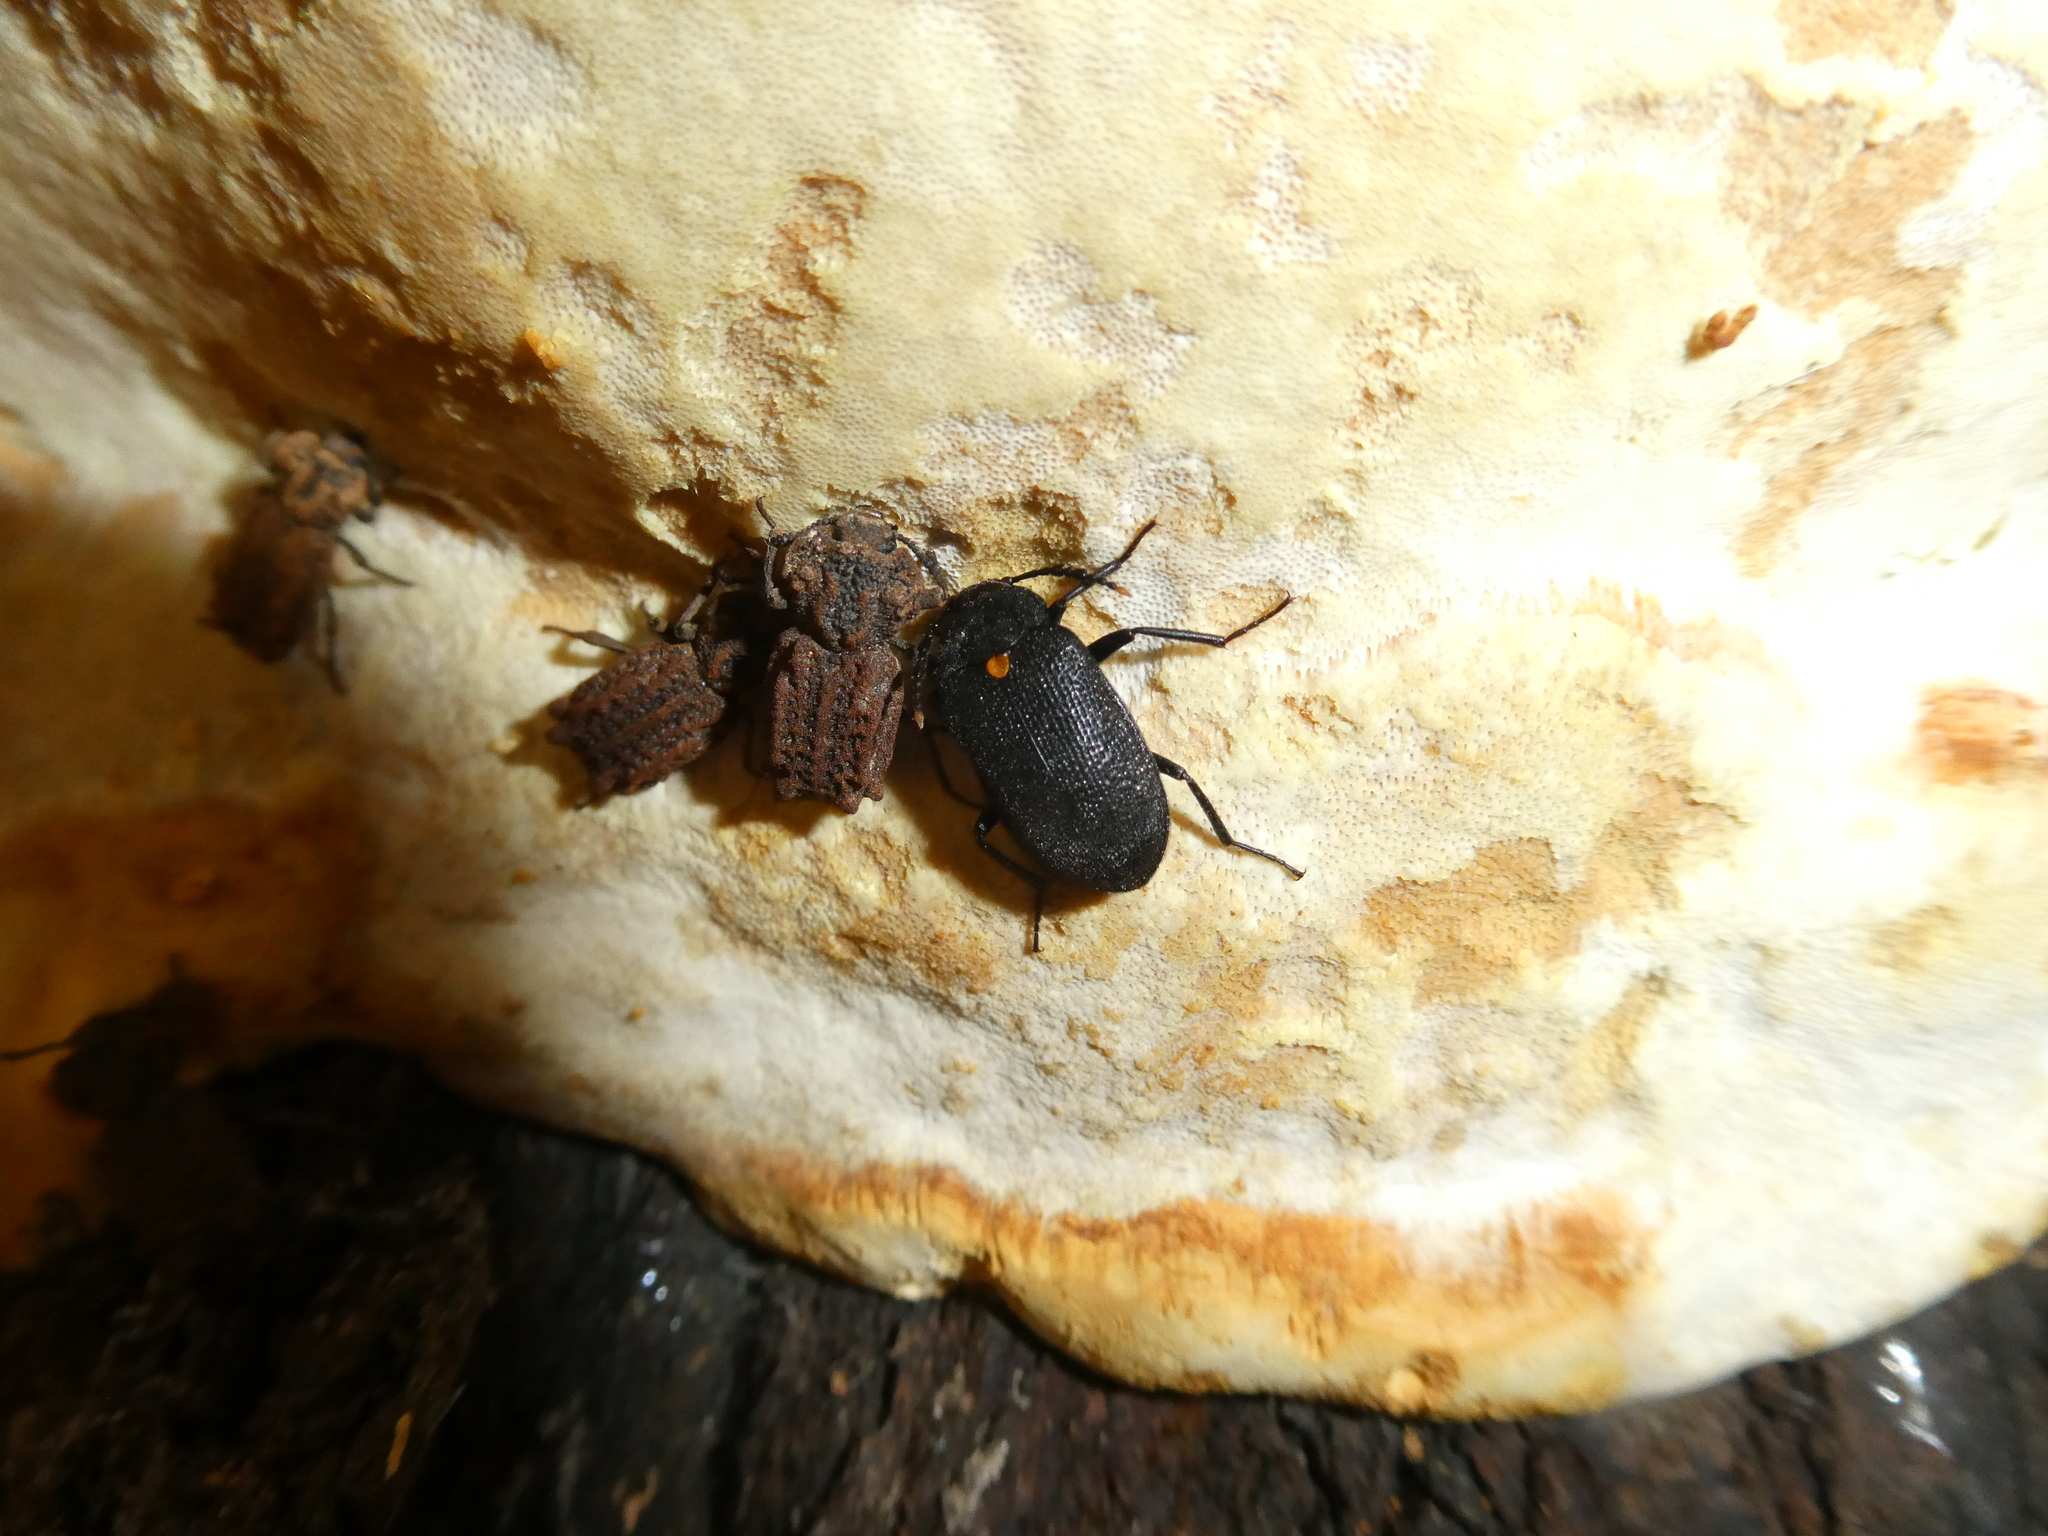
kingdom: Fungi
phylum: Basidiomycota
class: Agaricomycetes
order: Polyporales
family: Fomitopsidaceae
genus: Fomitopsis
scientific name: Fomitopsis mounceae
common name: Northern red belt
